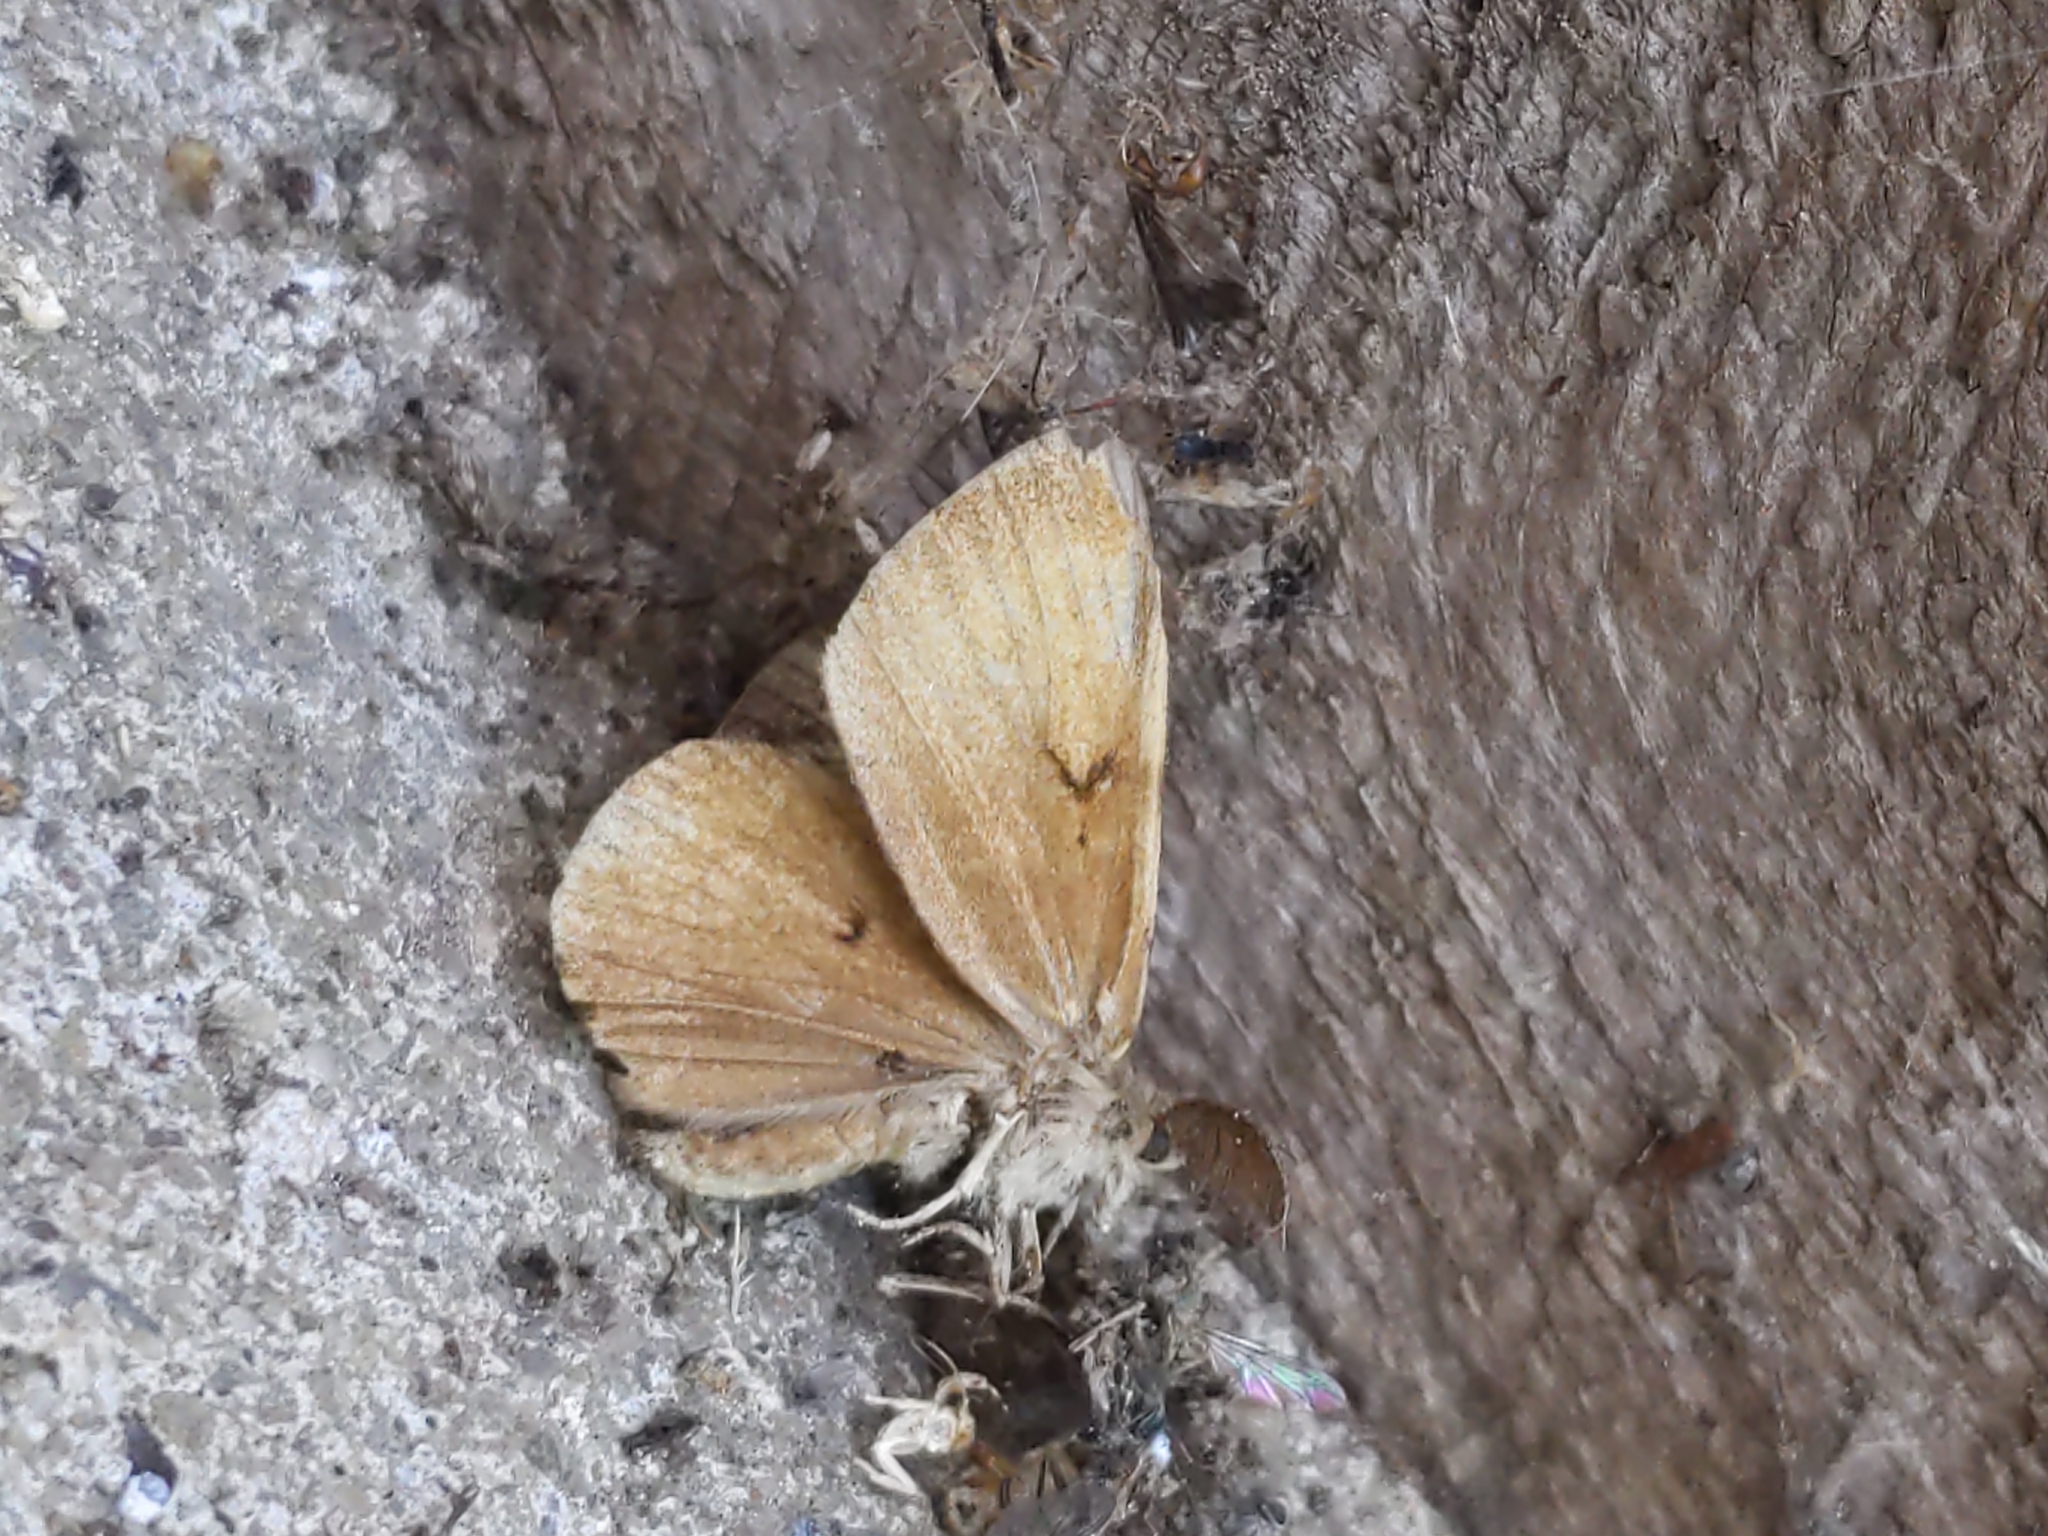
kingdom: Animalia
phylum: Arthropoda
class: Insecta
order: Lepidoptera
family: Erebidae
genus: Lymantria
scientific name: Lymantria dispar
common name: Gypsy moth
